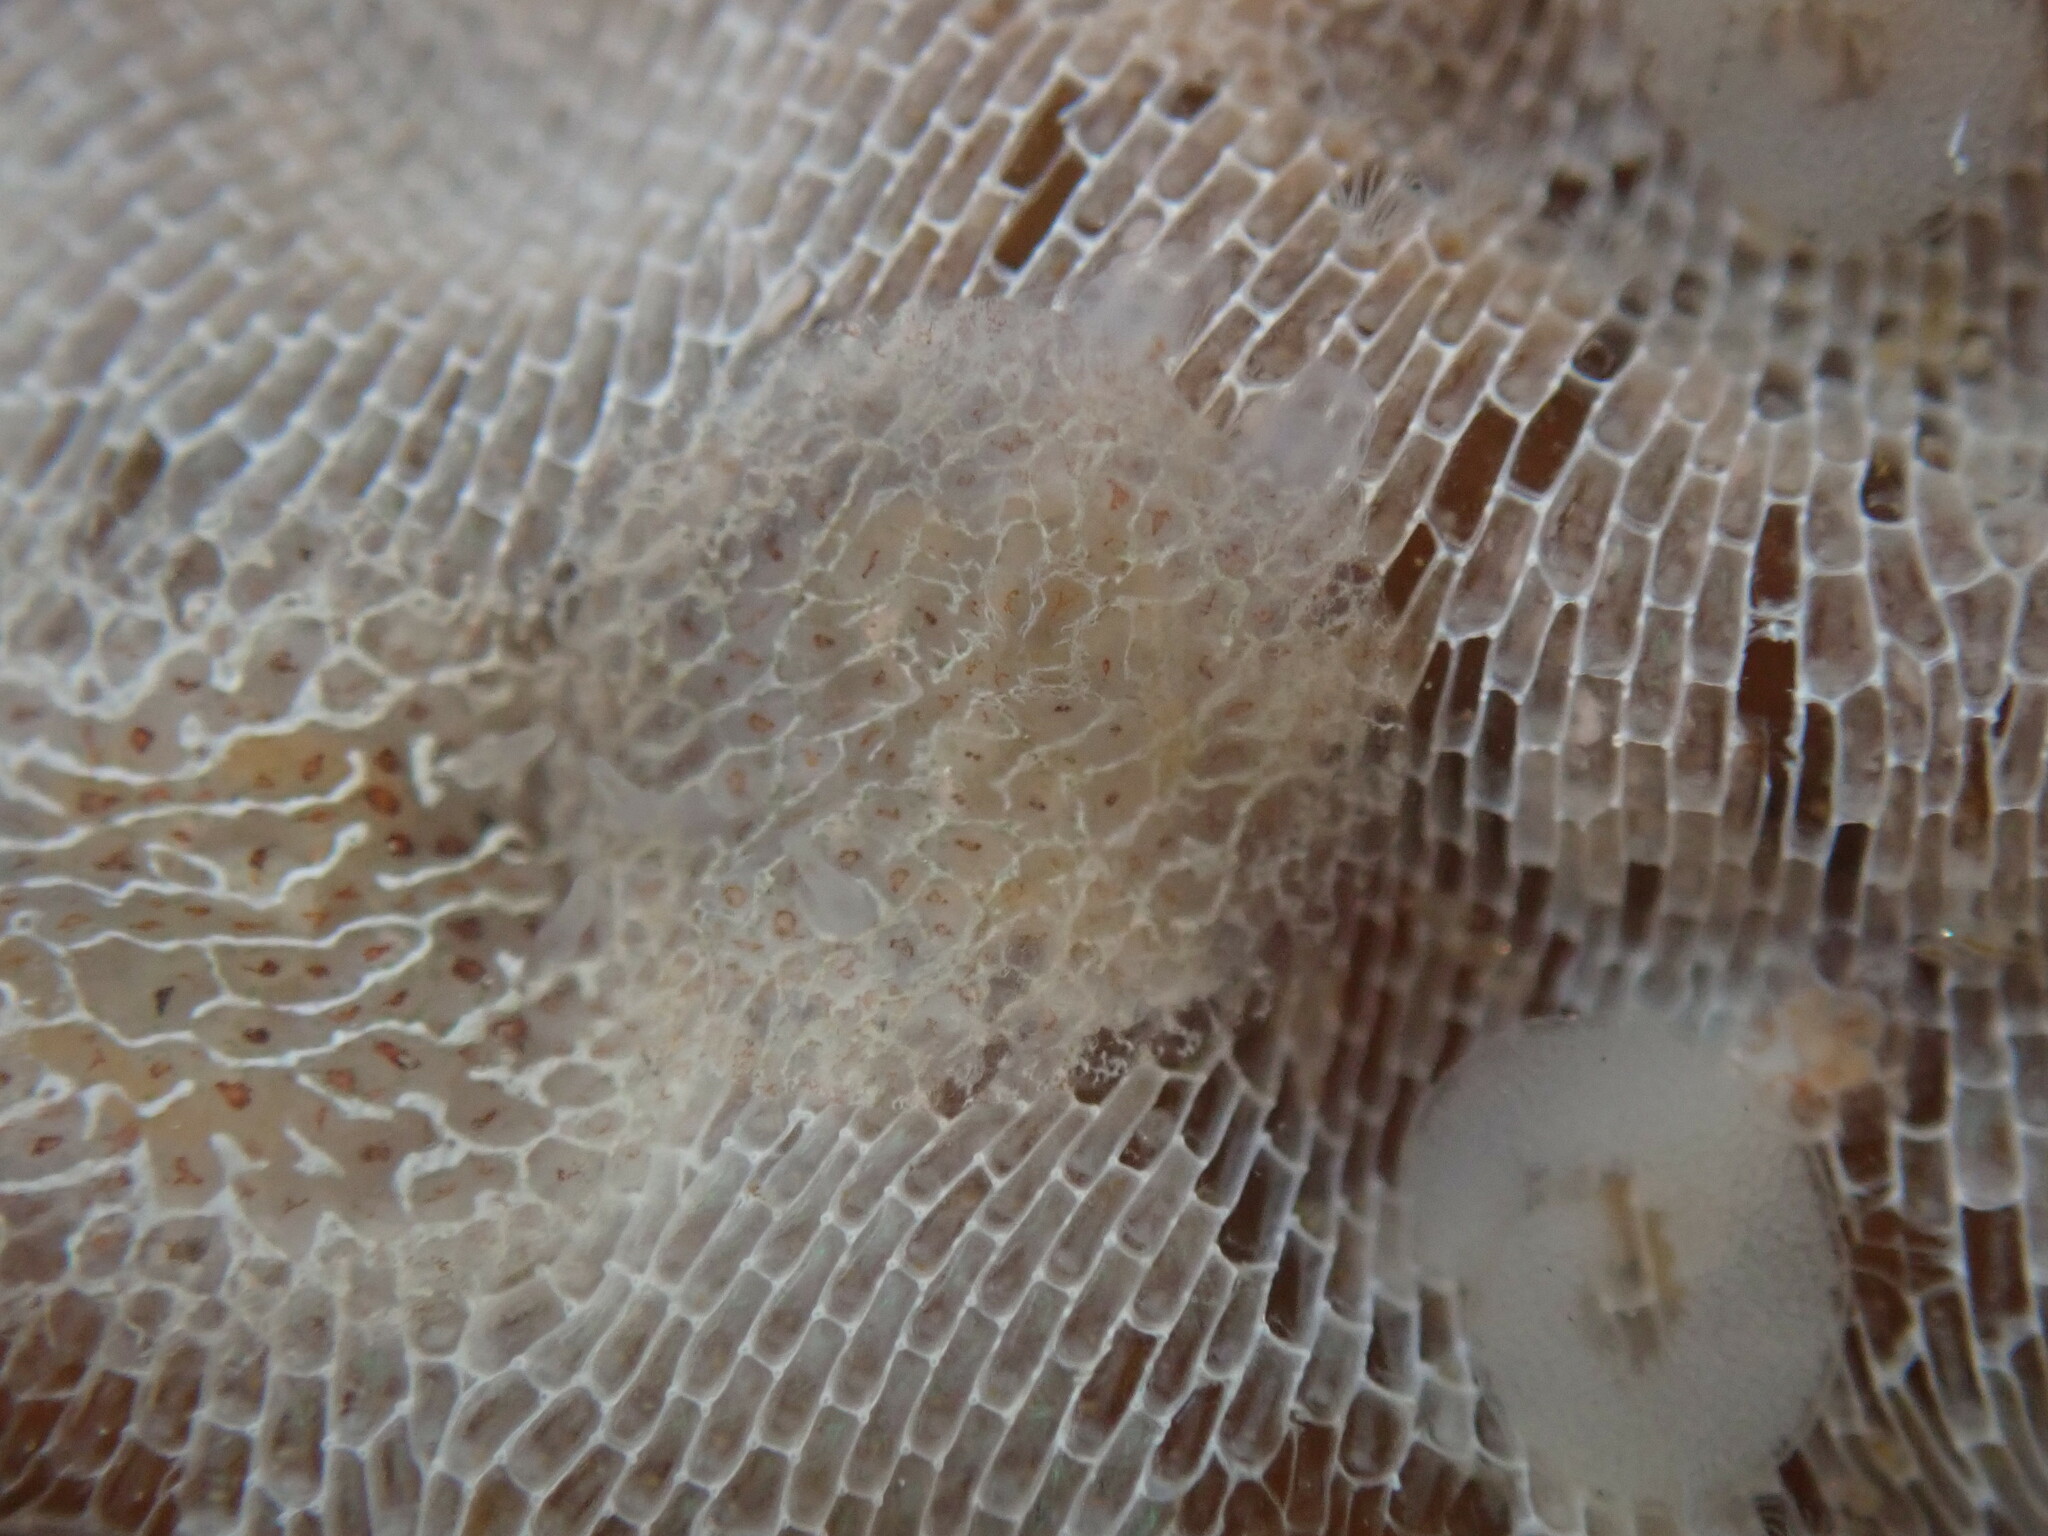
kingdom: Animalia
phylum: Mollusca
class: Gastropoda
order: Nudibranchia
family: Corambidae
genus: Corambe
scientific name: Corambe steinbergae
